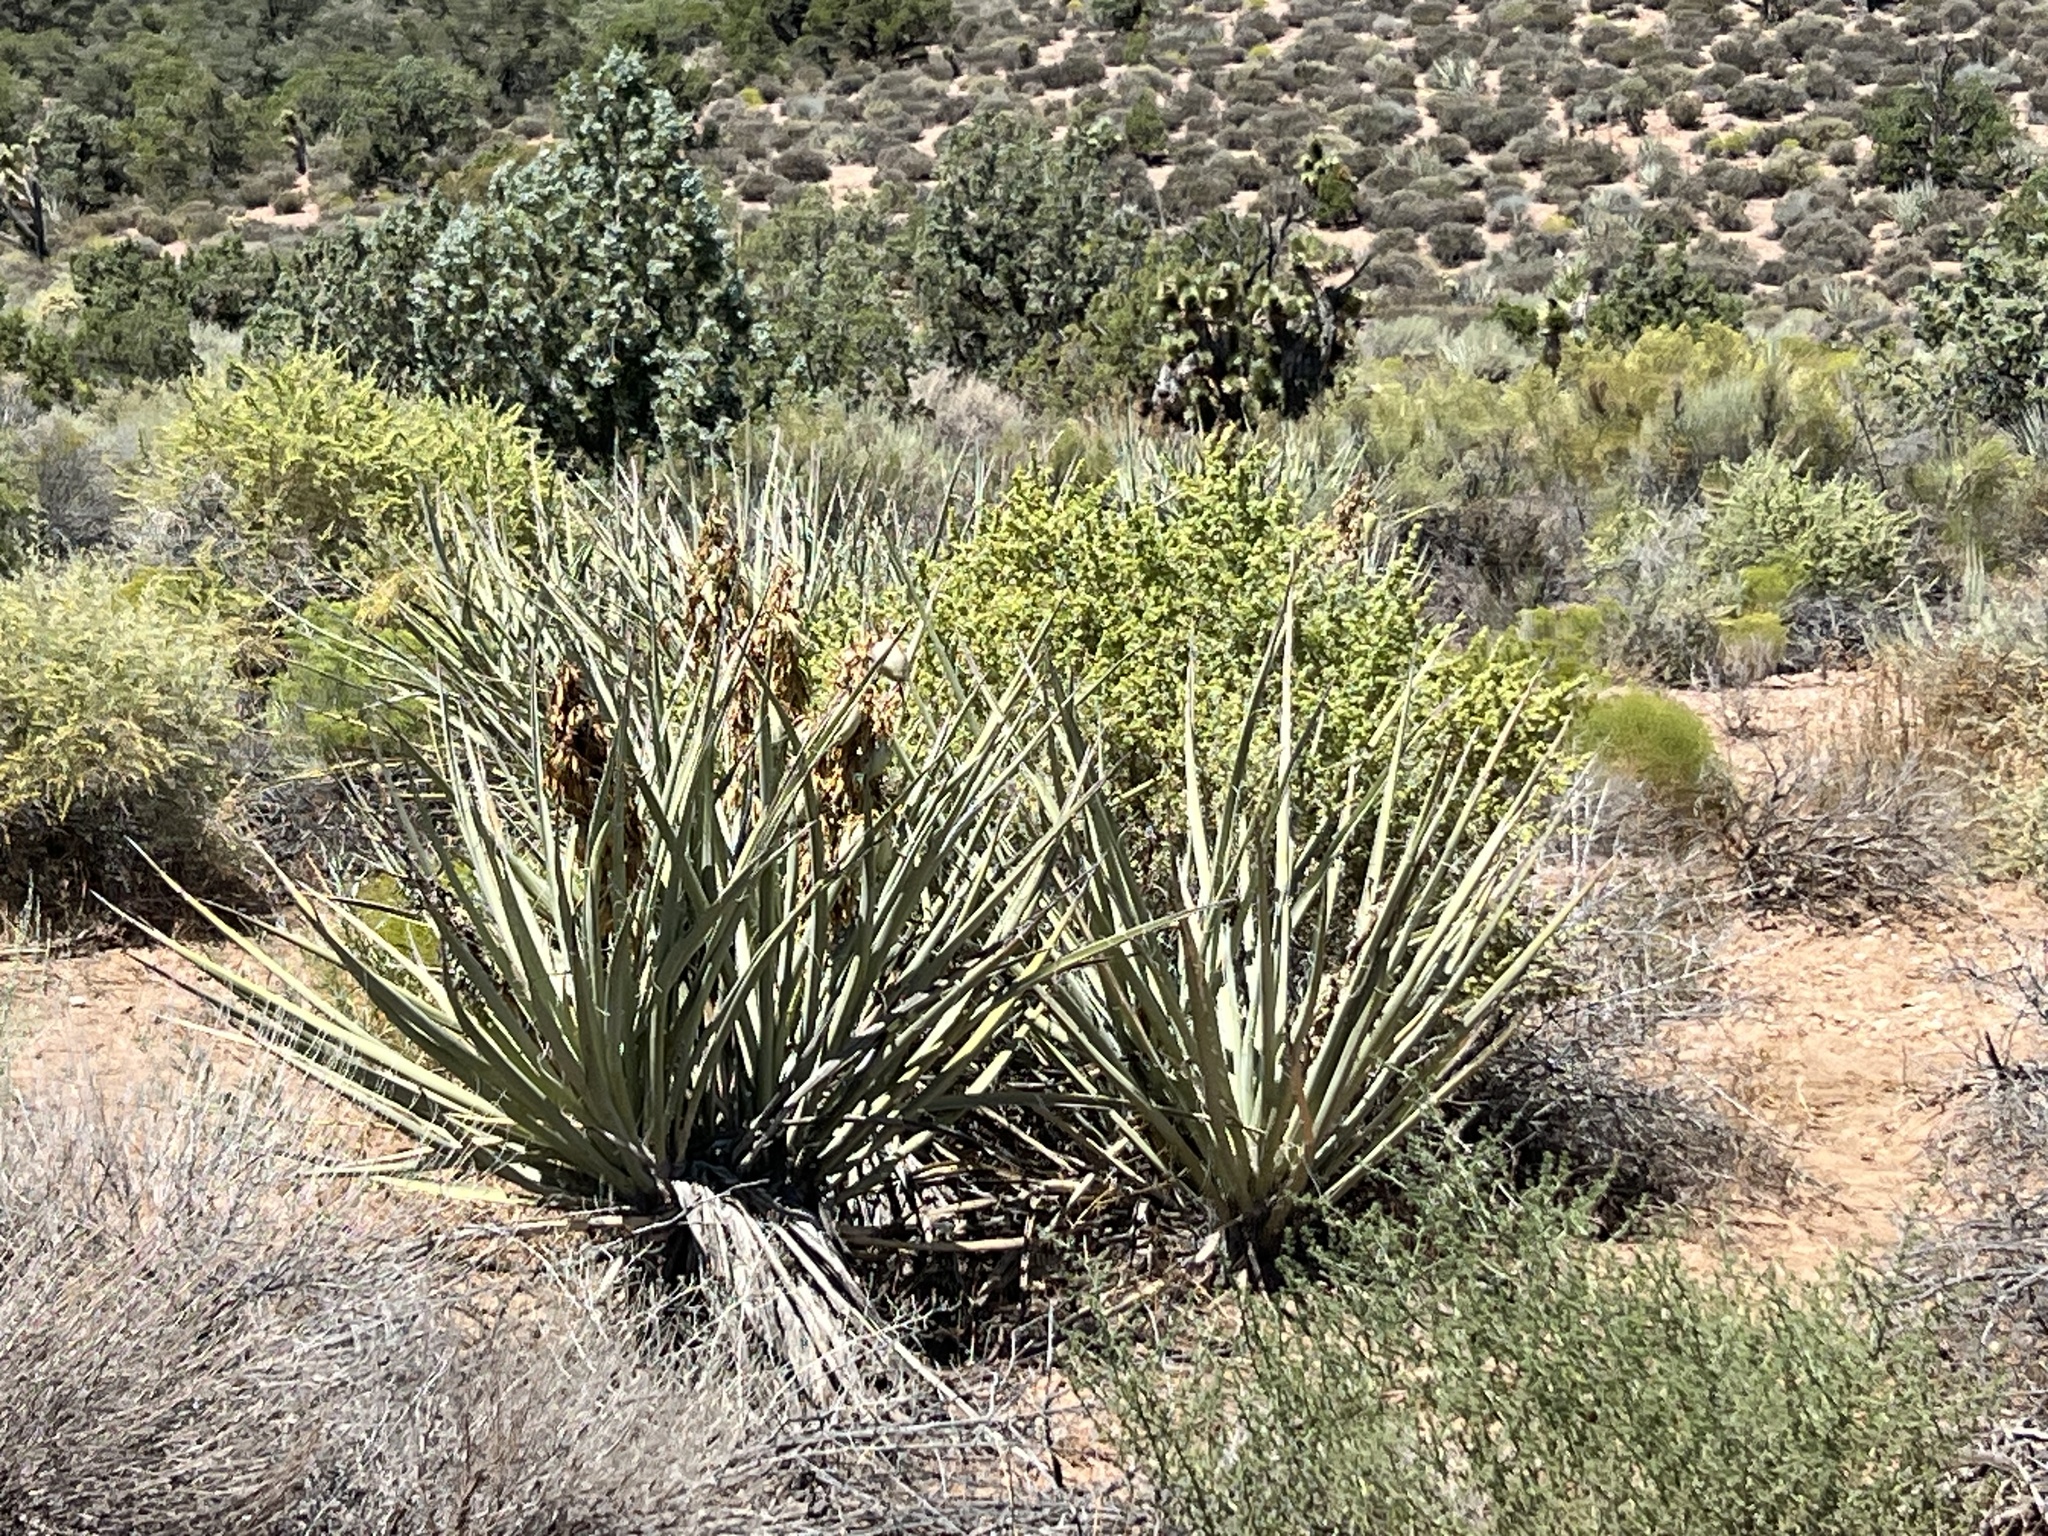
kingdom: Plantae
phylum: Tracheophyta
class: Liliopsida
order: Asparagales
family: Asparagaceae
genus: Yucca
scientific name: Yucca baccata
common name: Banana yucca
